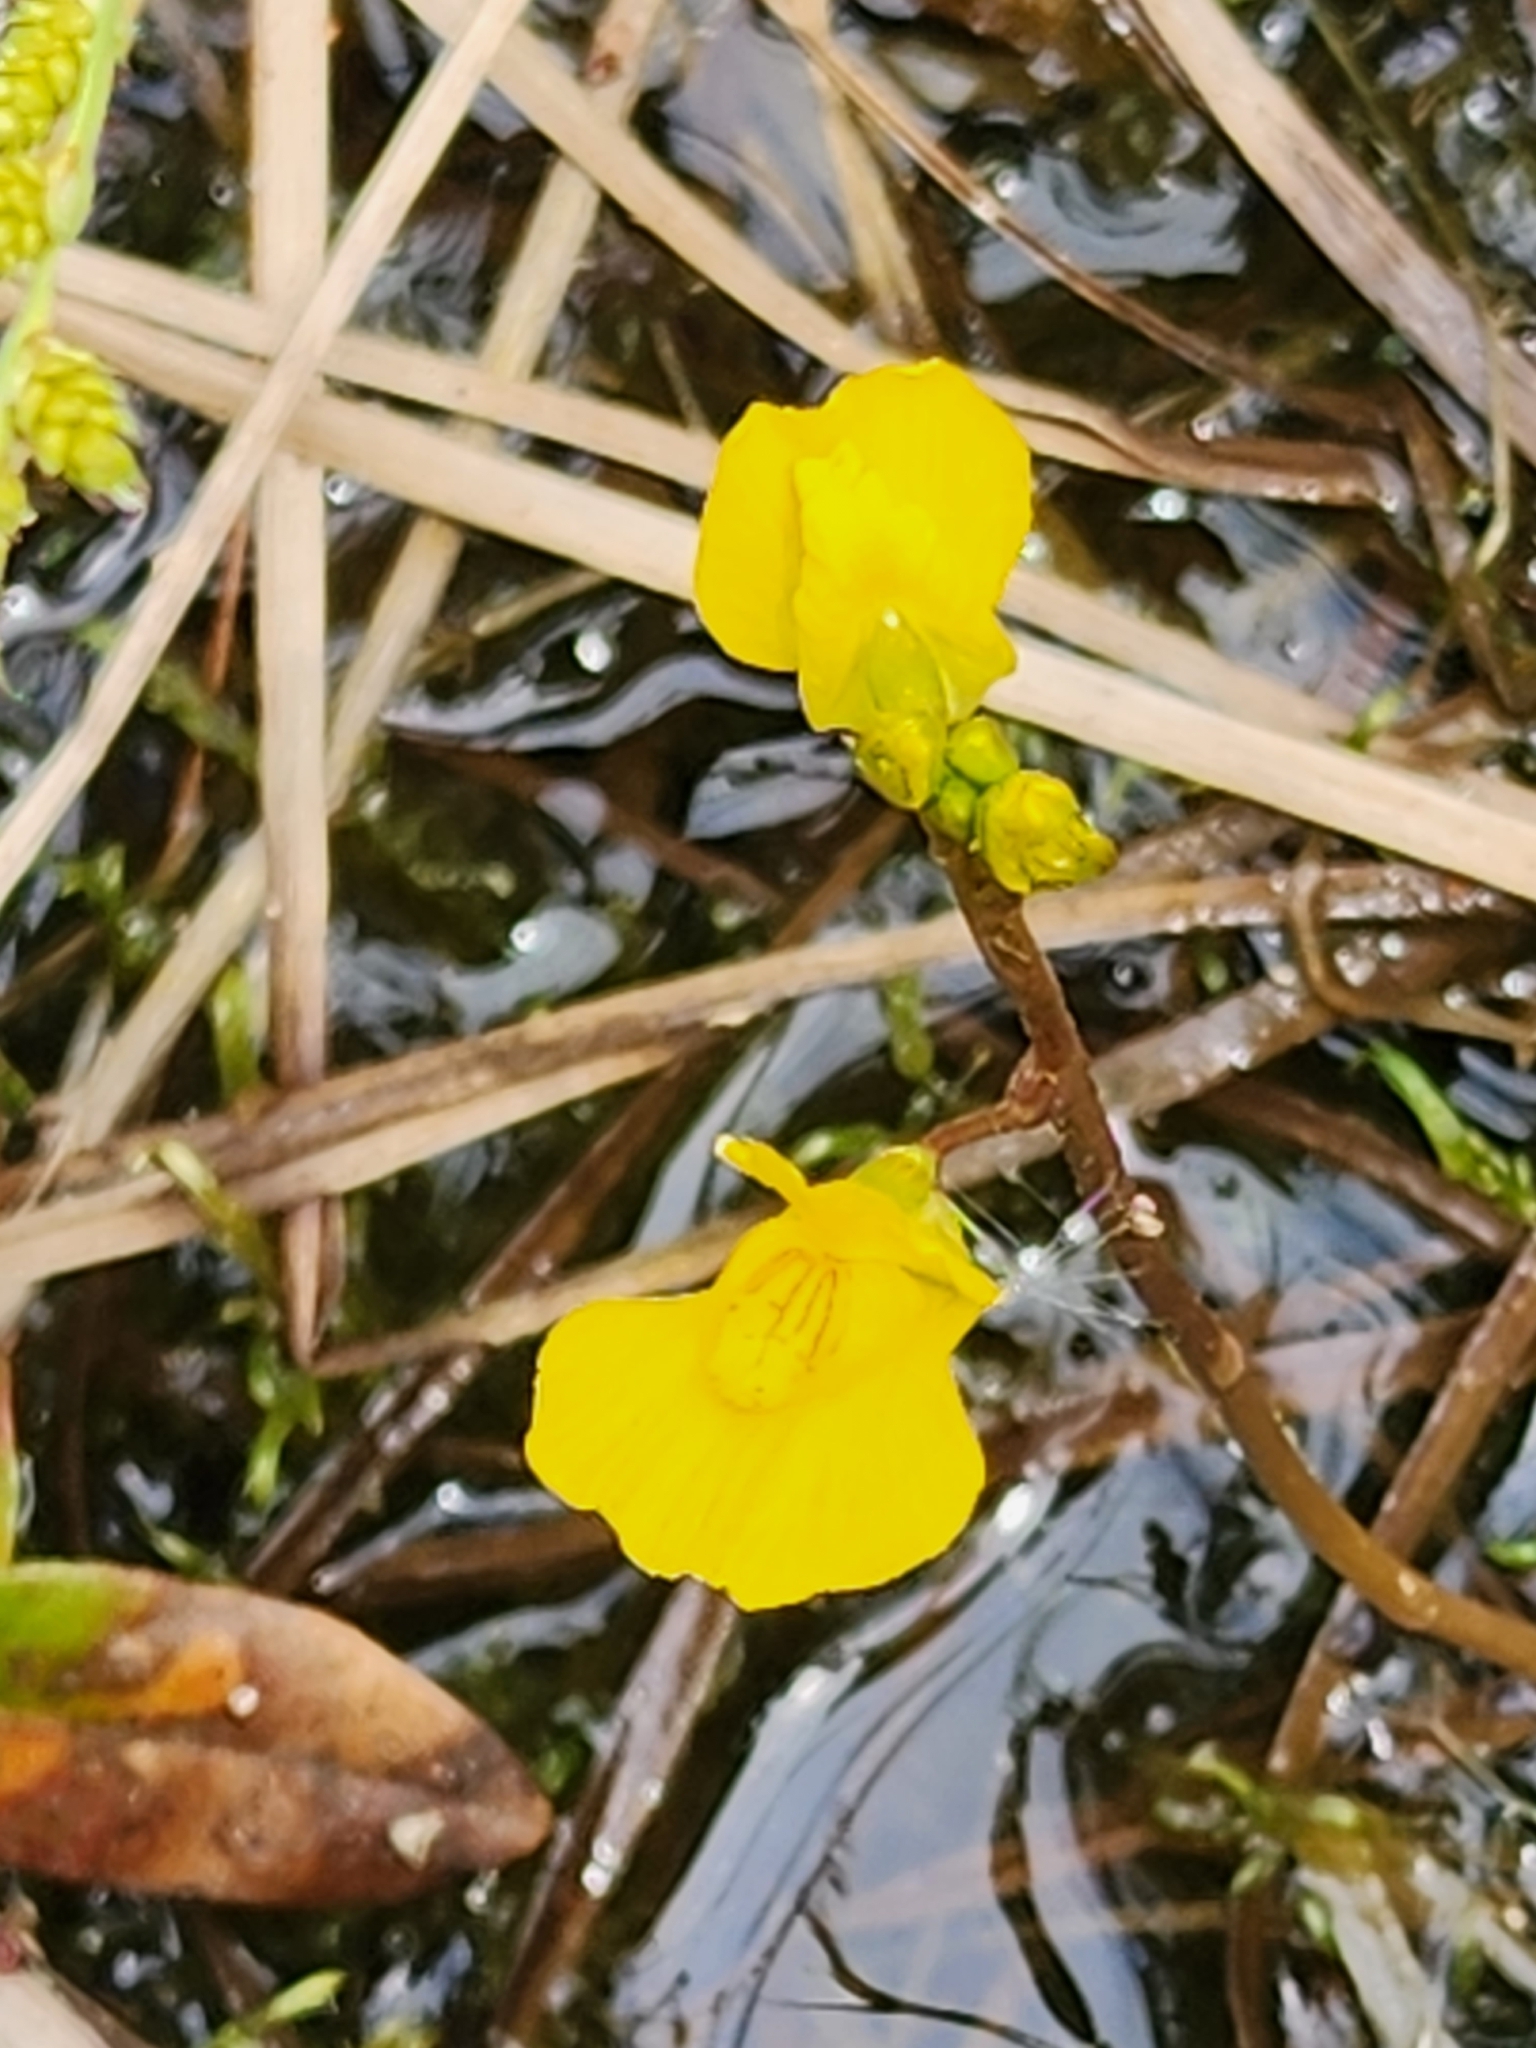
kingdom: Plantae
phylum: Tracheophyta
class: Magnoliopsida
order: Lamiales
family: Lentibulariaceae
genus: Utricularia
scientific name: Utricularia macrorhiza
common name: Common bladderwort
